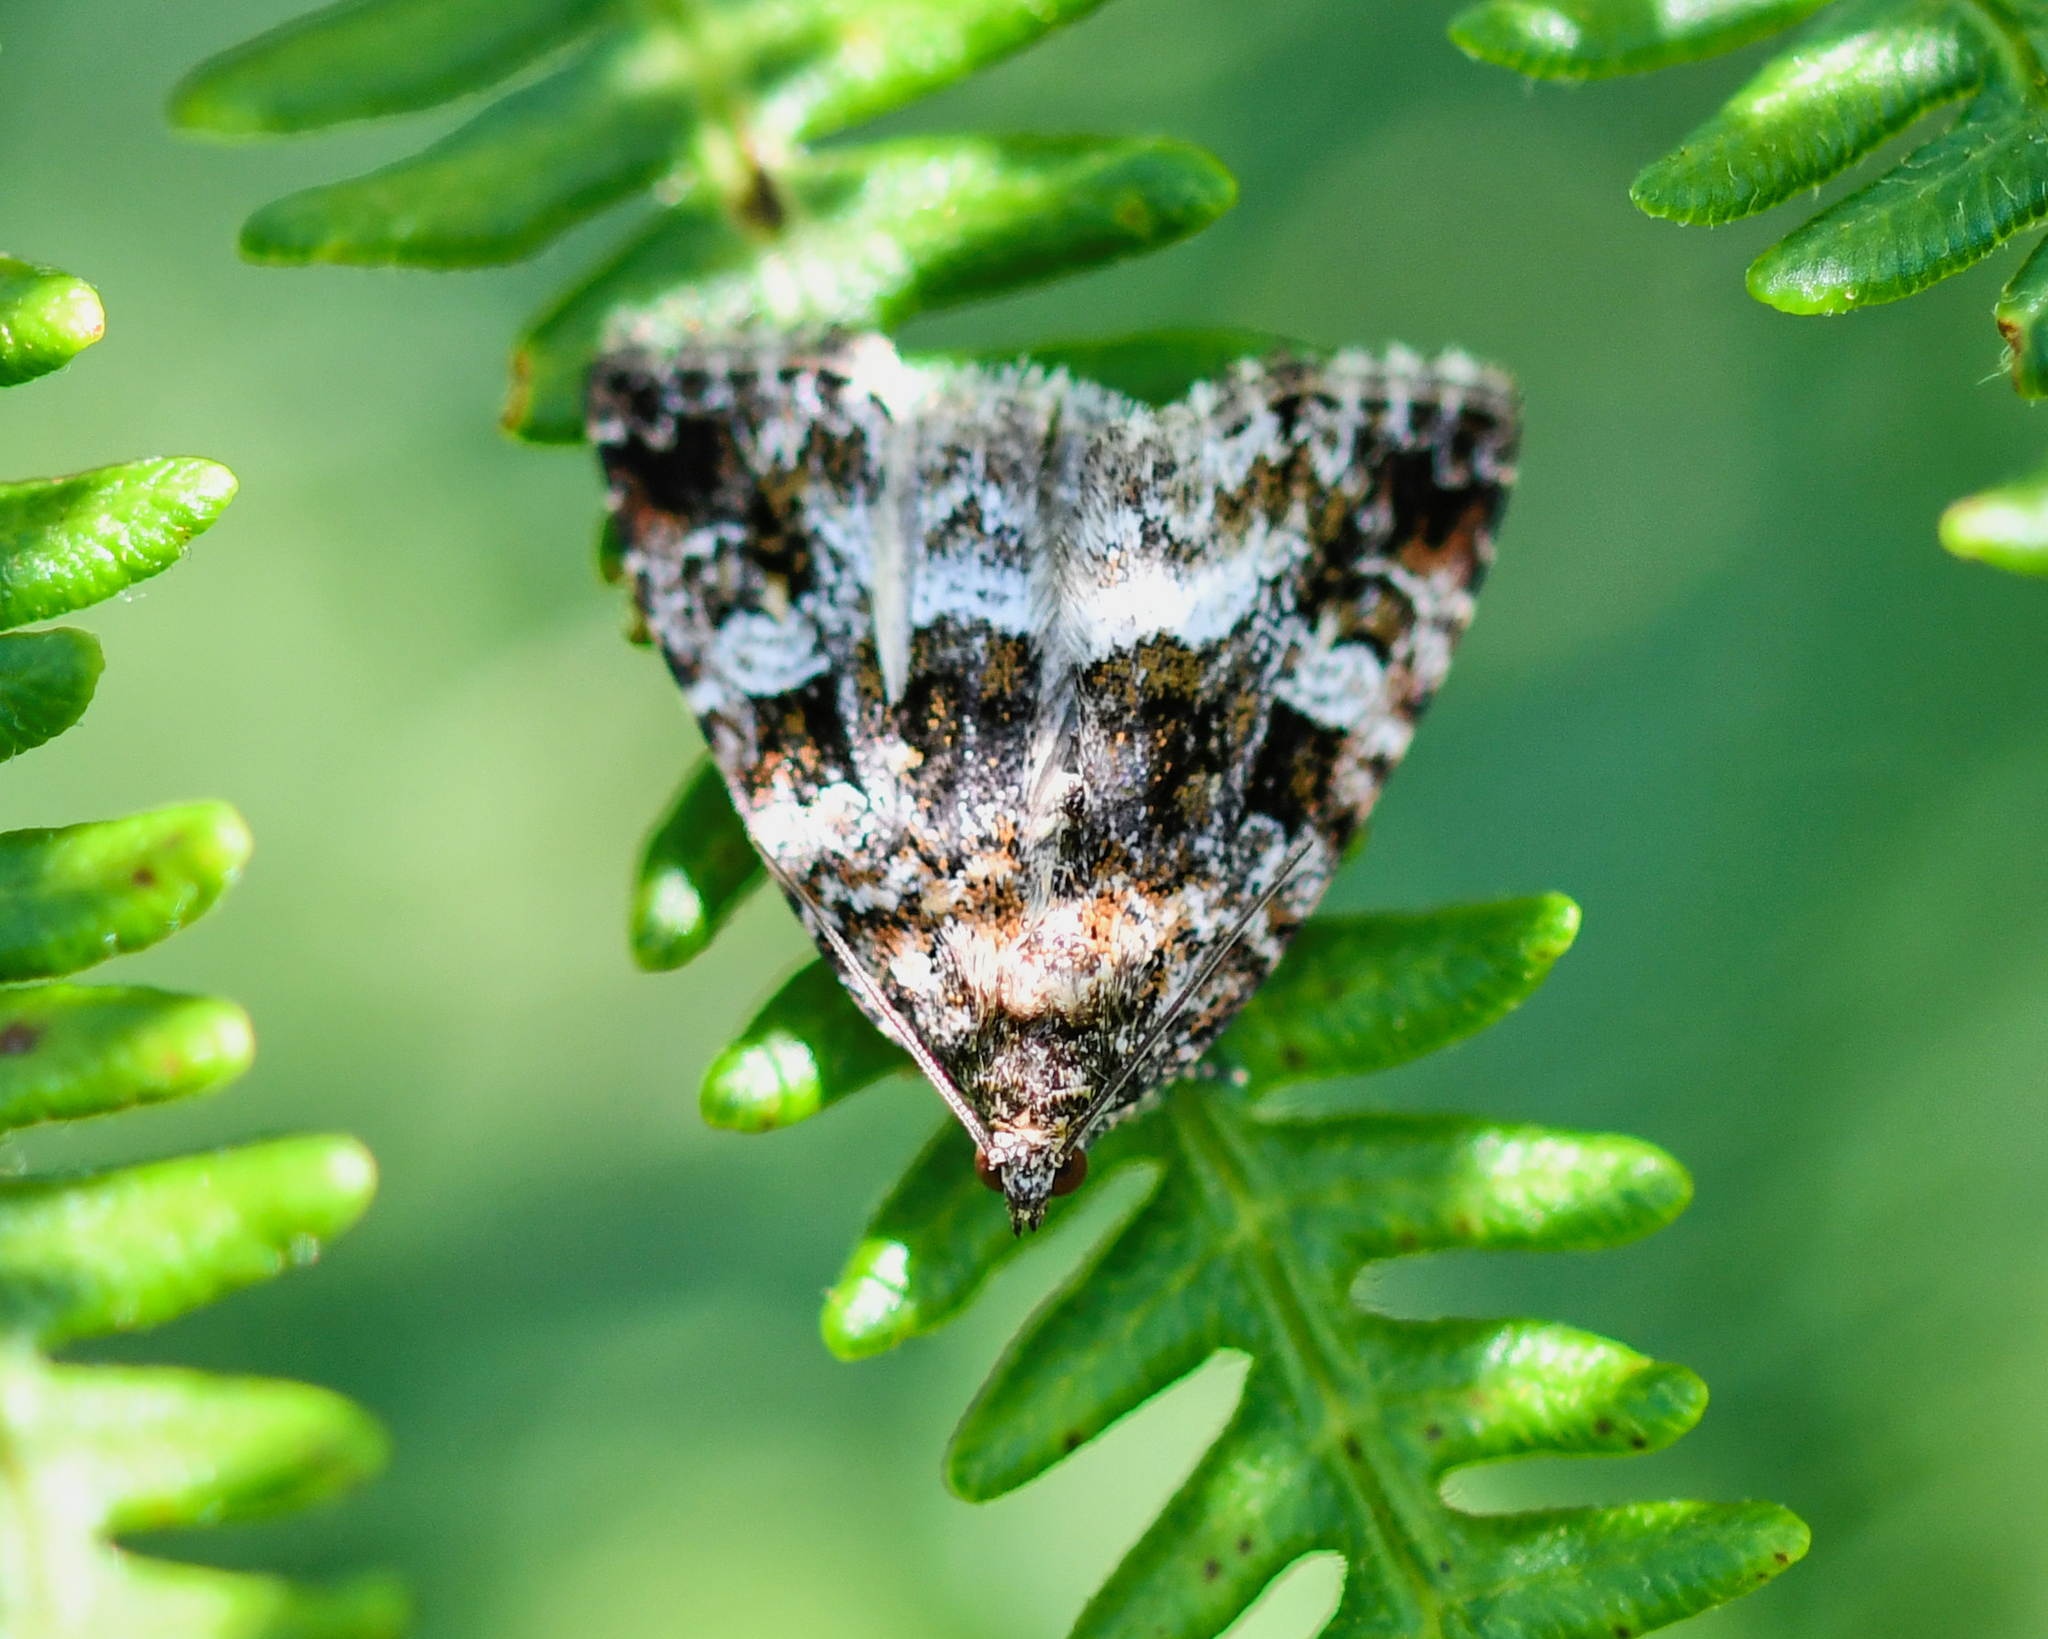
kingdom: Animalia
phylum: Arthropoda
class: Insecta
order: Lepidoptera
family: Noctuidae
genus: Deltote
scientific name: Deltote pygarga
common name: Marbled white spot
